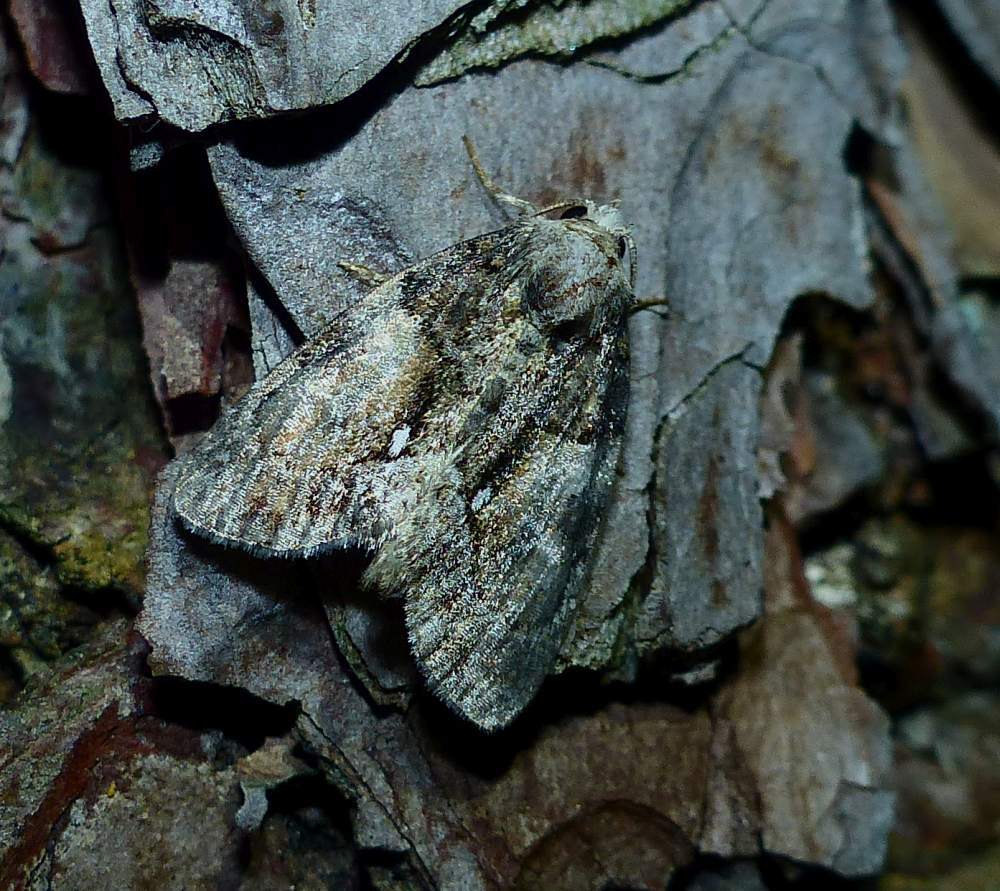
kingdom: Animalia
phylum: Arthropoda
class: Insecta
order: Lepidoptera
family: Noctuidae
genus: Chytonix
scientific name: Chytonix palliatricula
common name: Cloaked marvel
